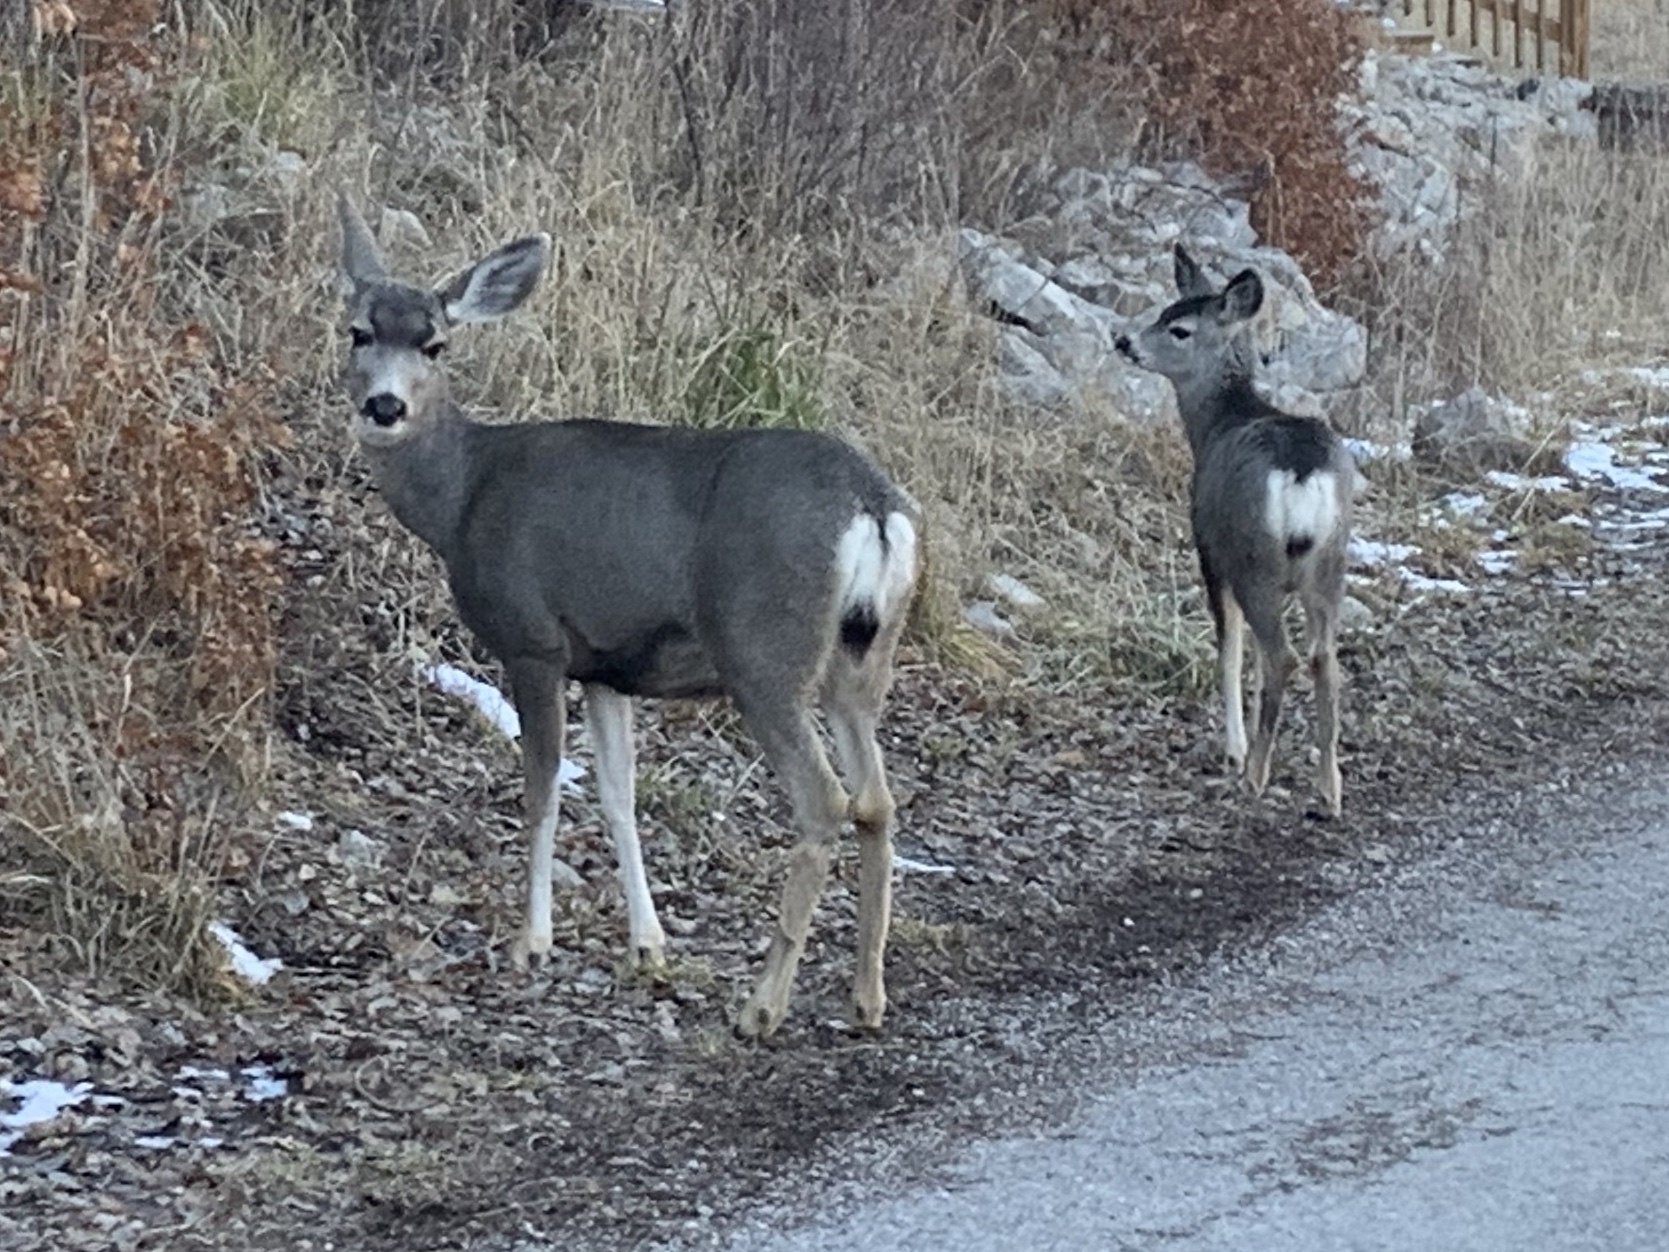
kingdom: Animalia
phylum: Chordata
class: Mammalia
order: Artiodactyla
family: Cervidae
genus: Odocoileus
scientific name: Odocoileus hemionus
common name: Mule deer
